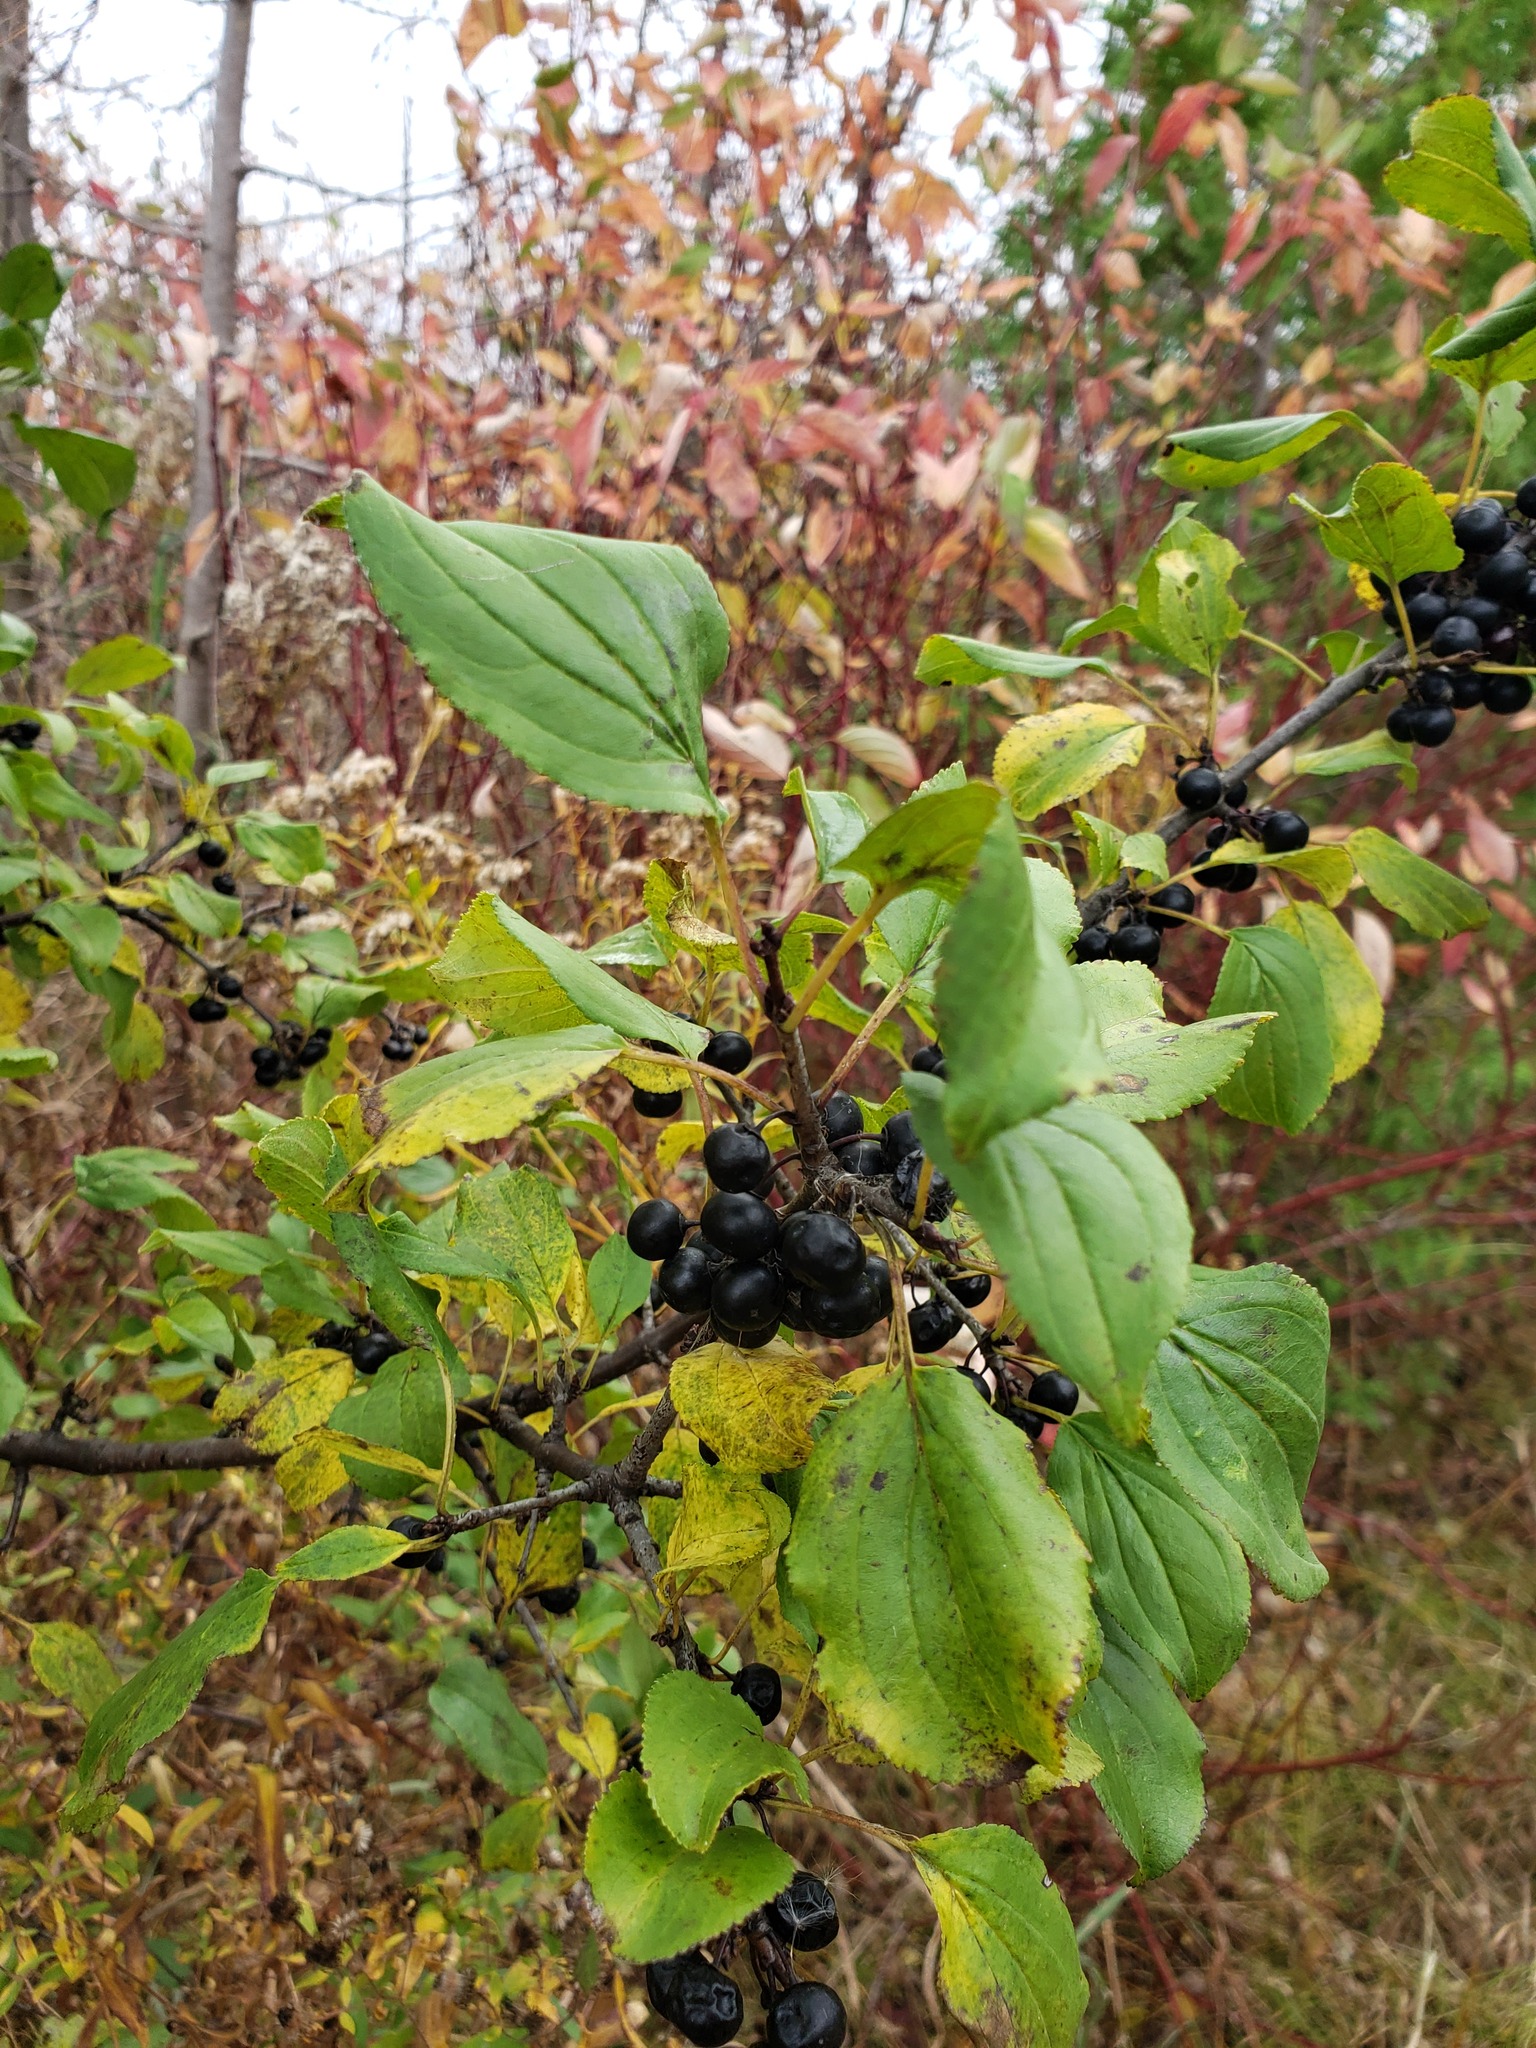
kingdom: Plantae
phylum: Tracheophyta
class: Magnoliopsida
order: Rosales
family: Rhamnaceae
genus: Rhamnus
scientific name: Rhamnus cathartica
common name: Common buckthorn
